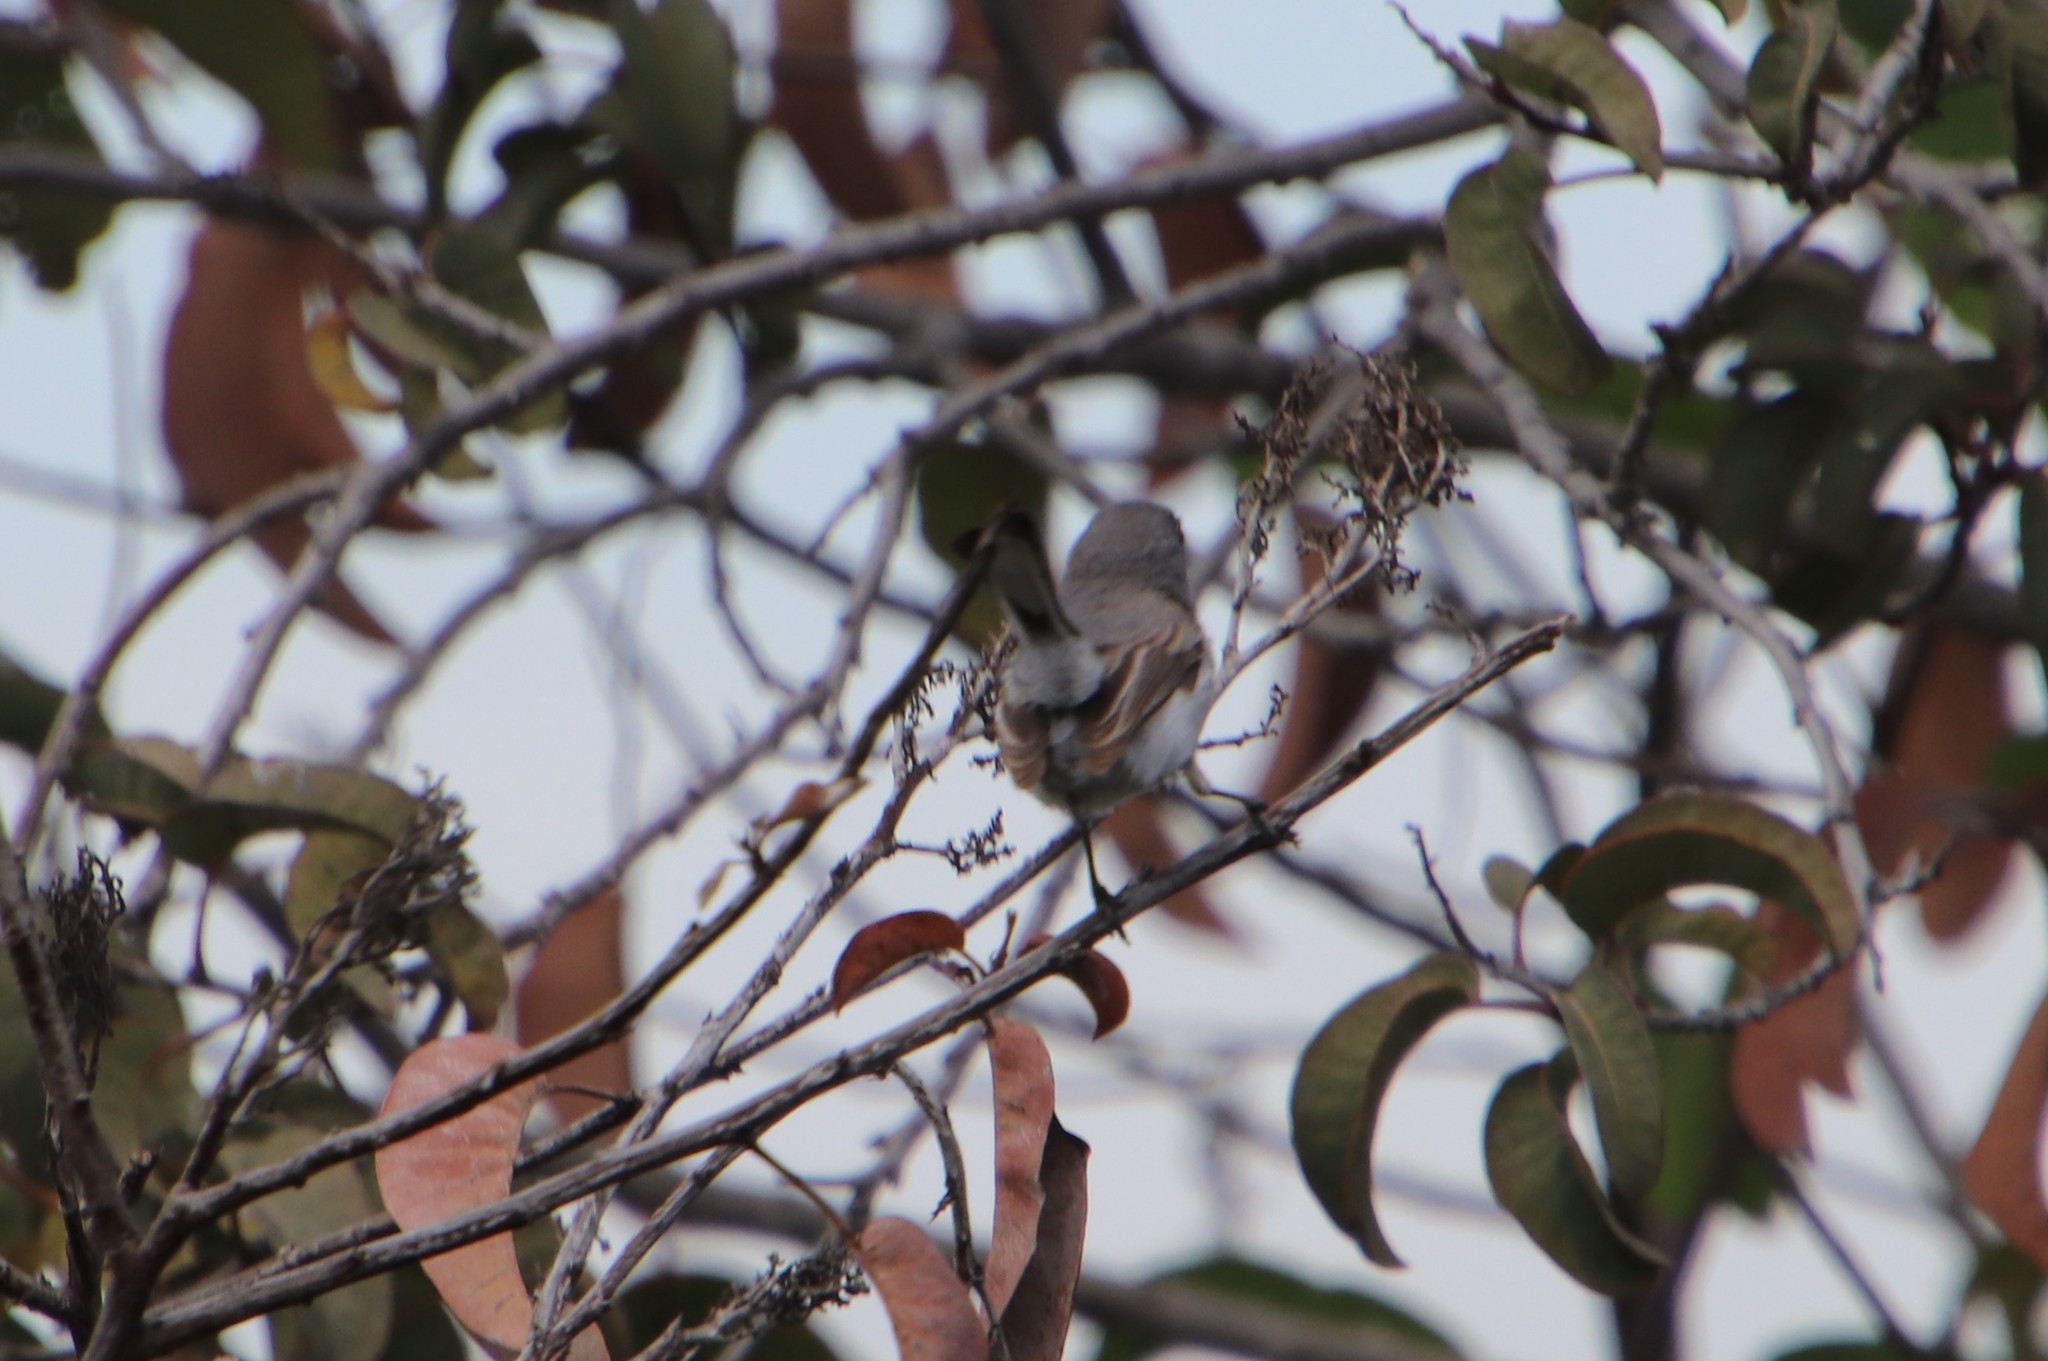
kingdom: Animalia
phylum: Chordata
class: Aves
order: Passeriformes
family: Polioptilidae
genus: Polioptila
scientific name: Polioptila caerulea
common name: Blue-gray gnatcatcher
